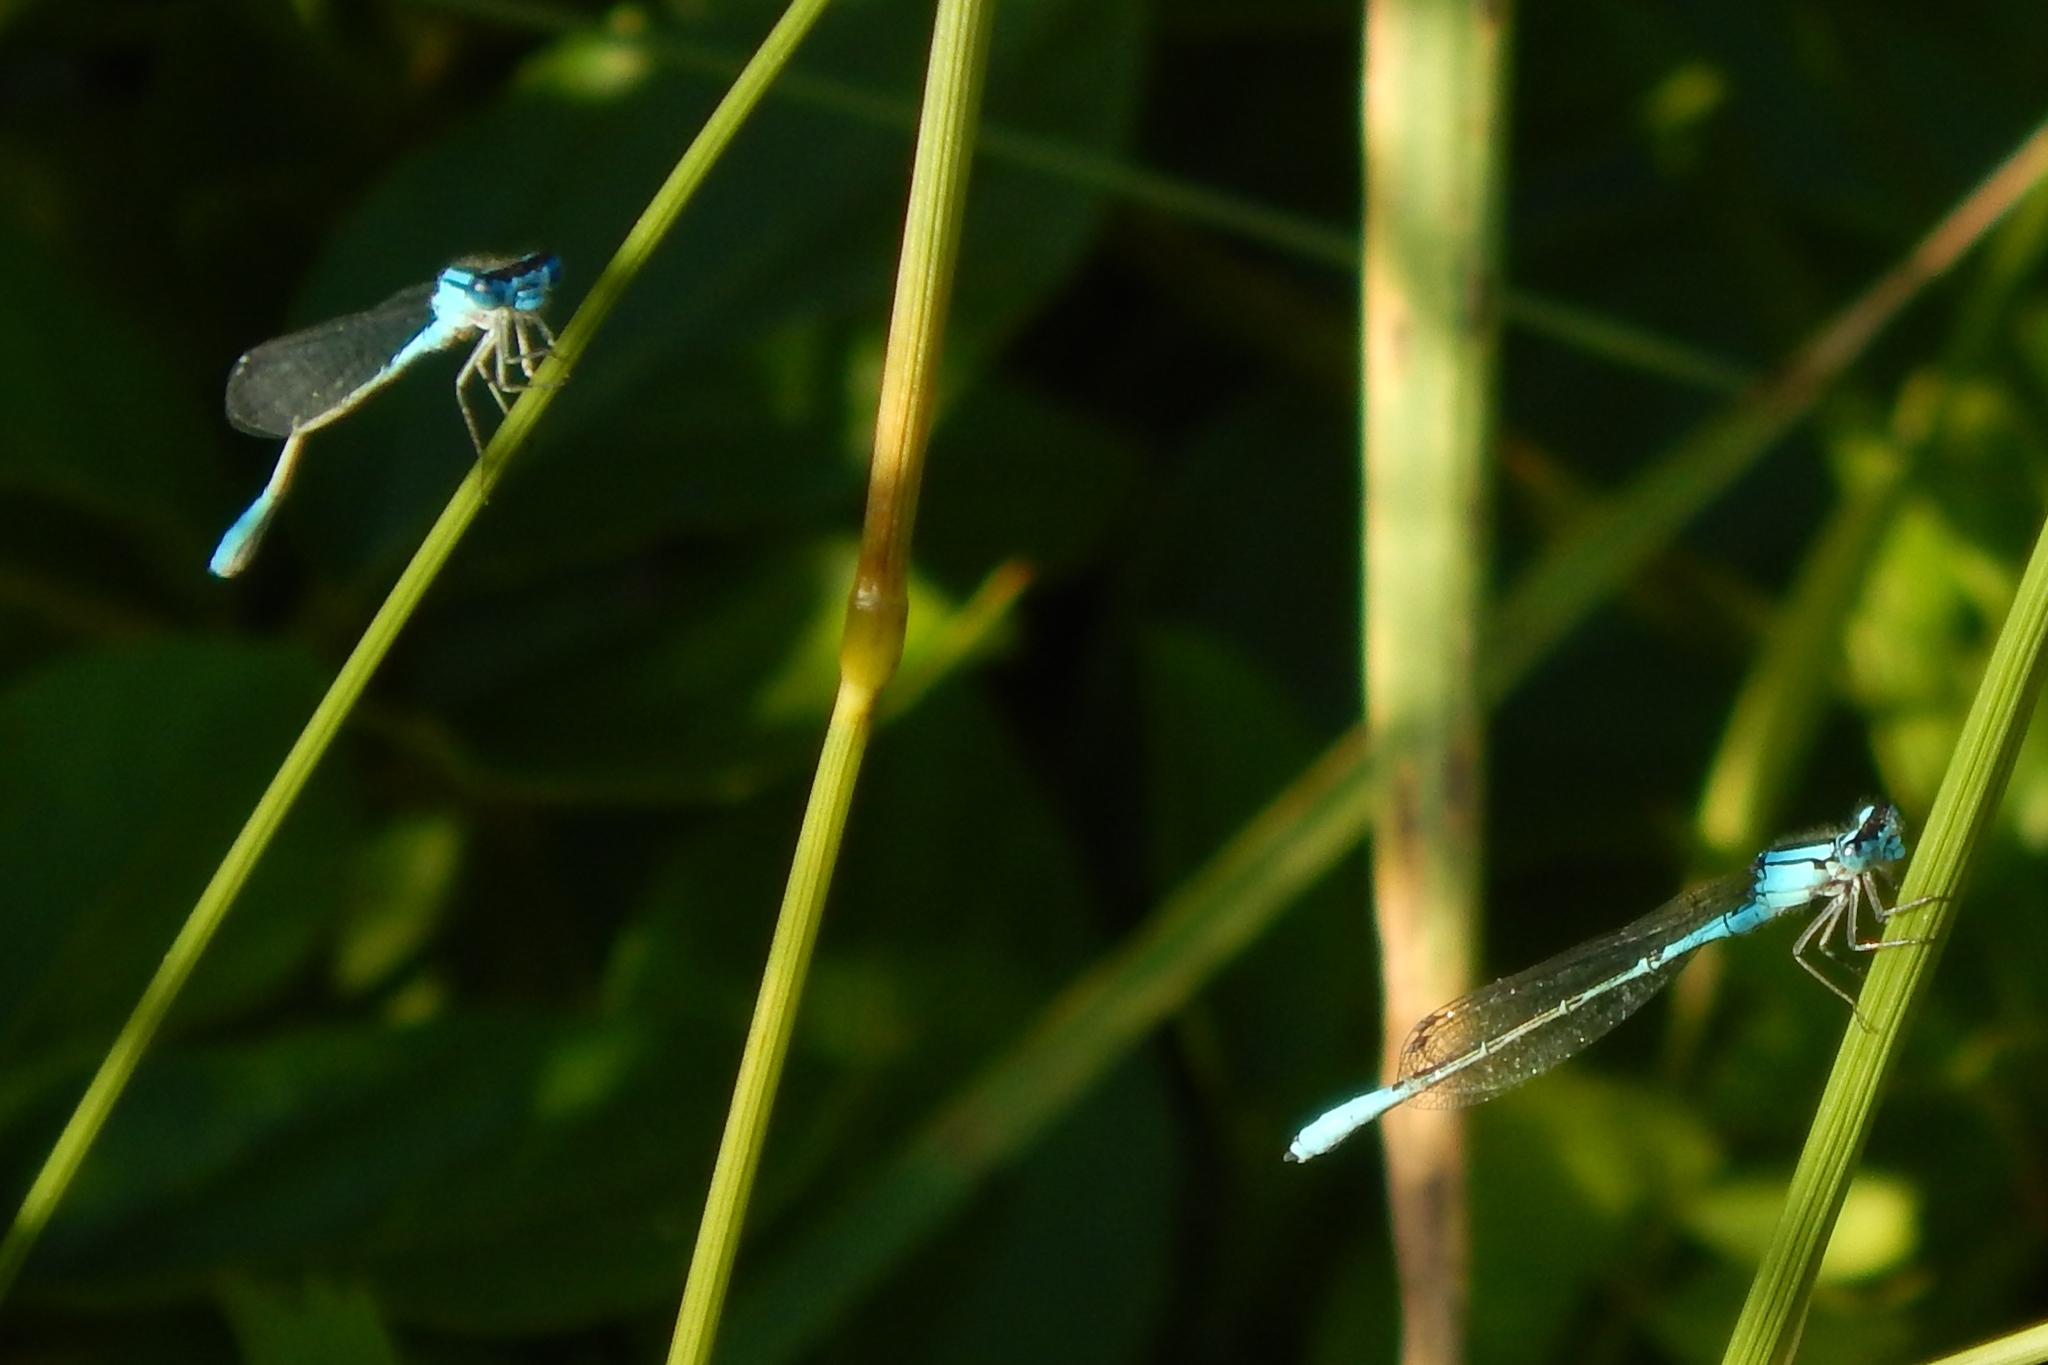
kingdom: Animalia
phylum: Arthropoda
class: Insecta
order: Odonata
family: Coenagrionidae
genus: Enallagma
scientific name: Enallagma aspersum
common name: Azure bluet
